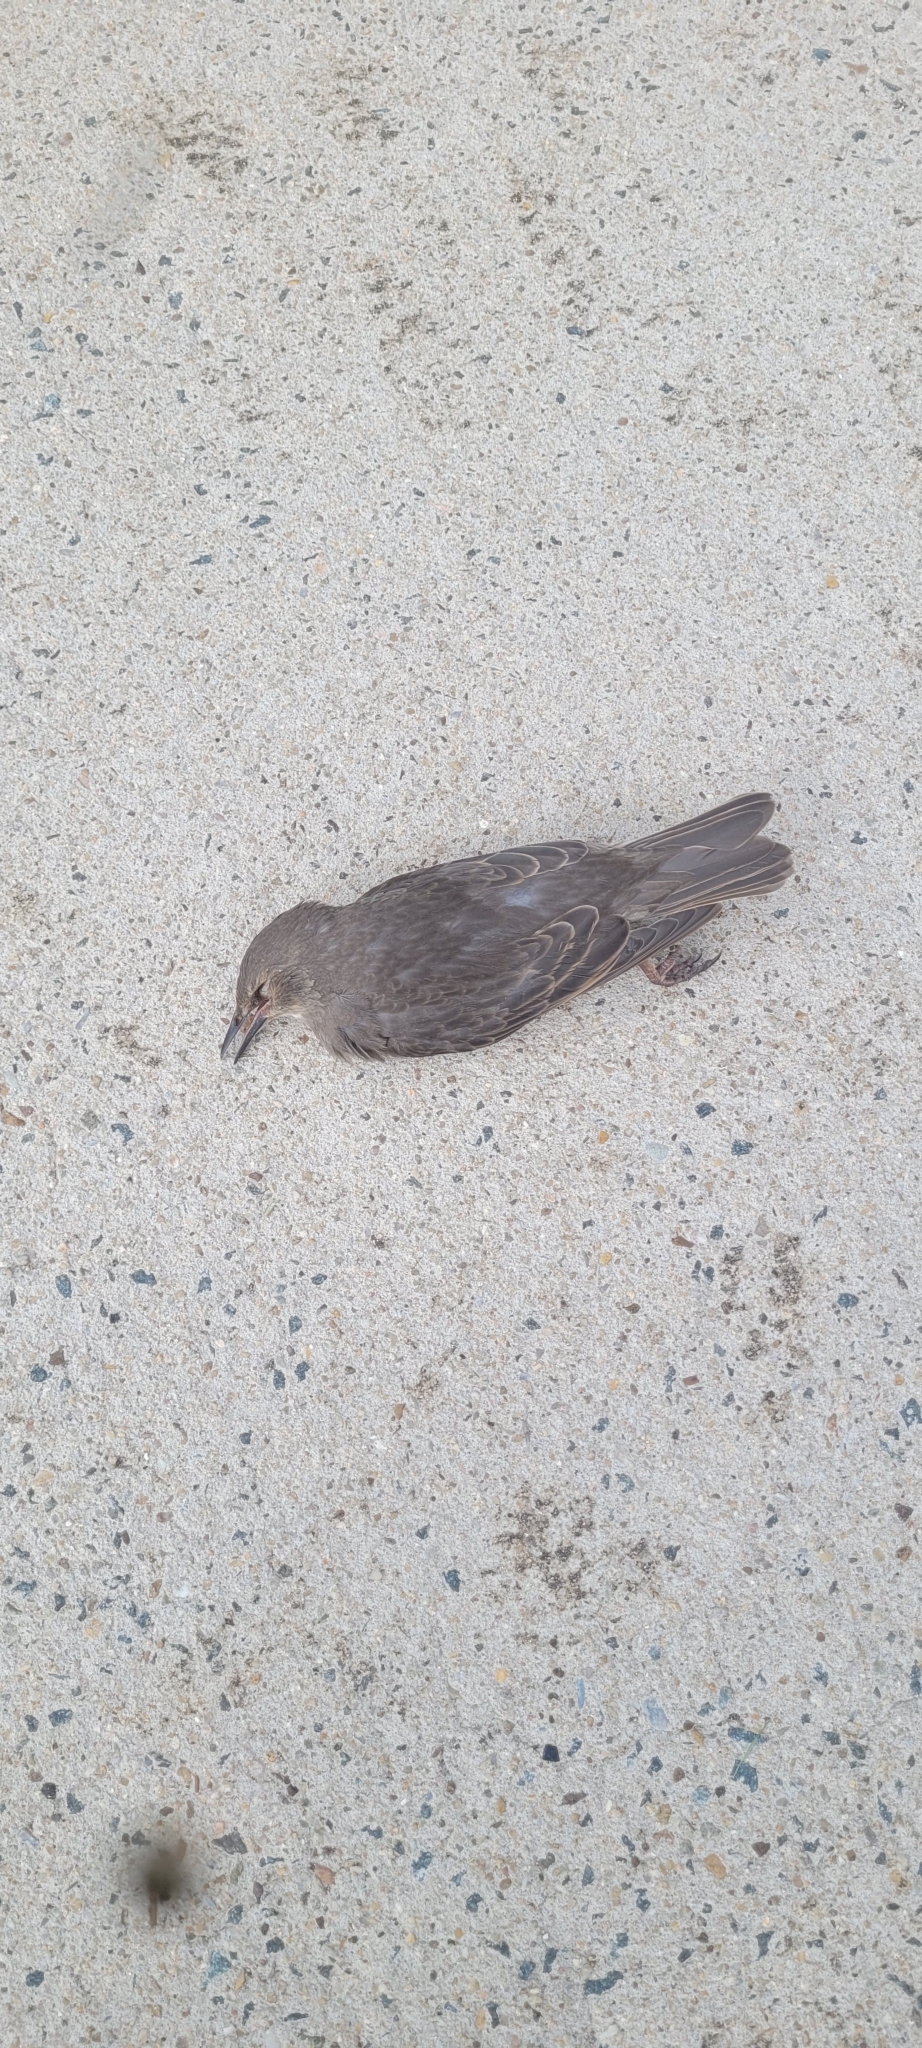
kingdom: Animalia
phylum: Chordata
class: Aves
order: Passeriformes
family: Sturnidae
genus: Sturnus
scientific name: Sturnus vulgaris
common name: Common starling
